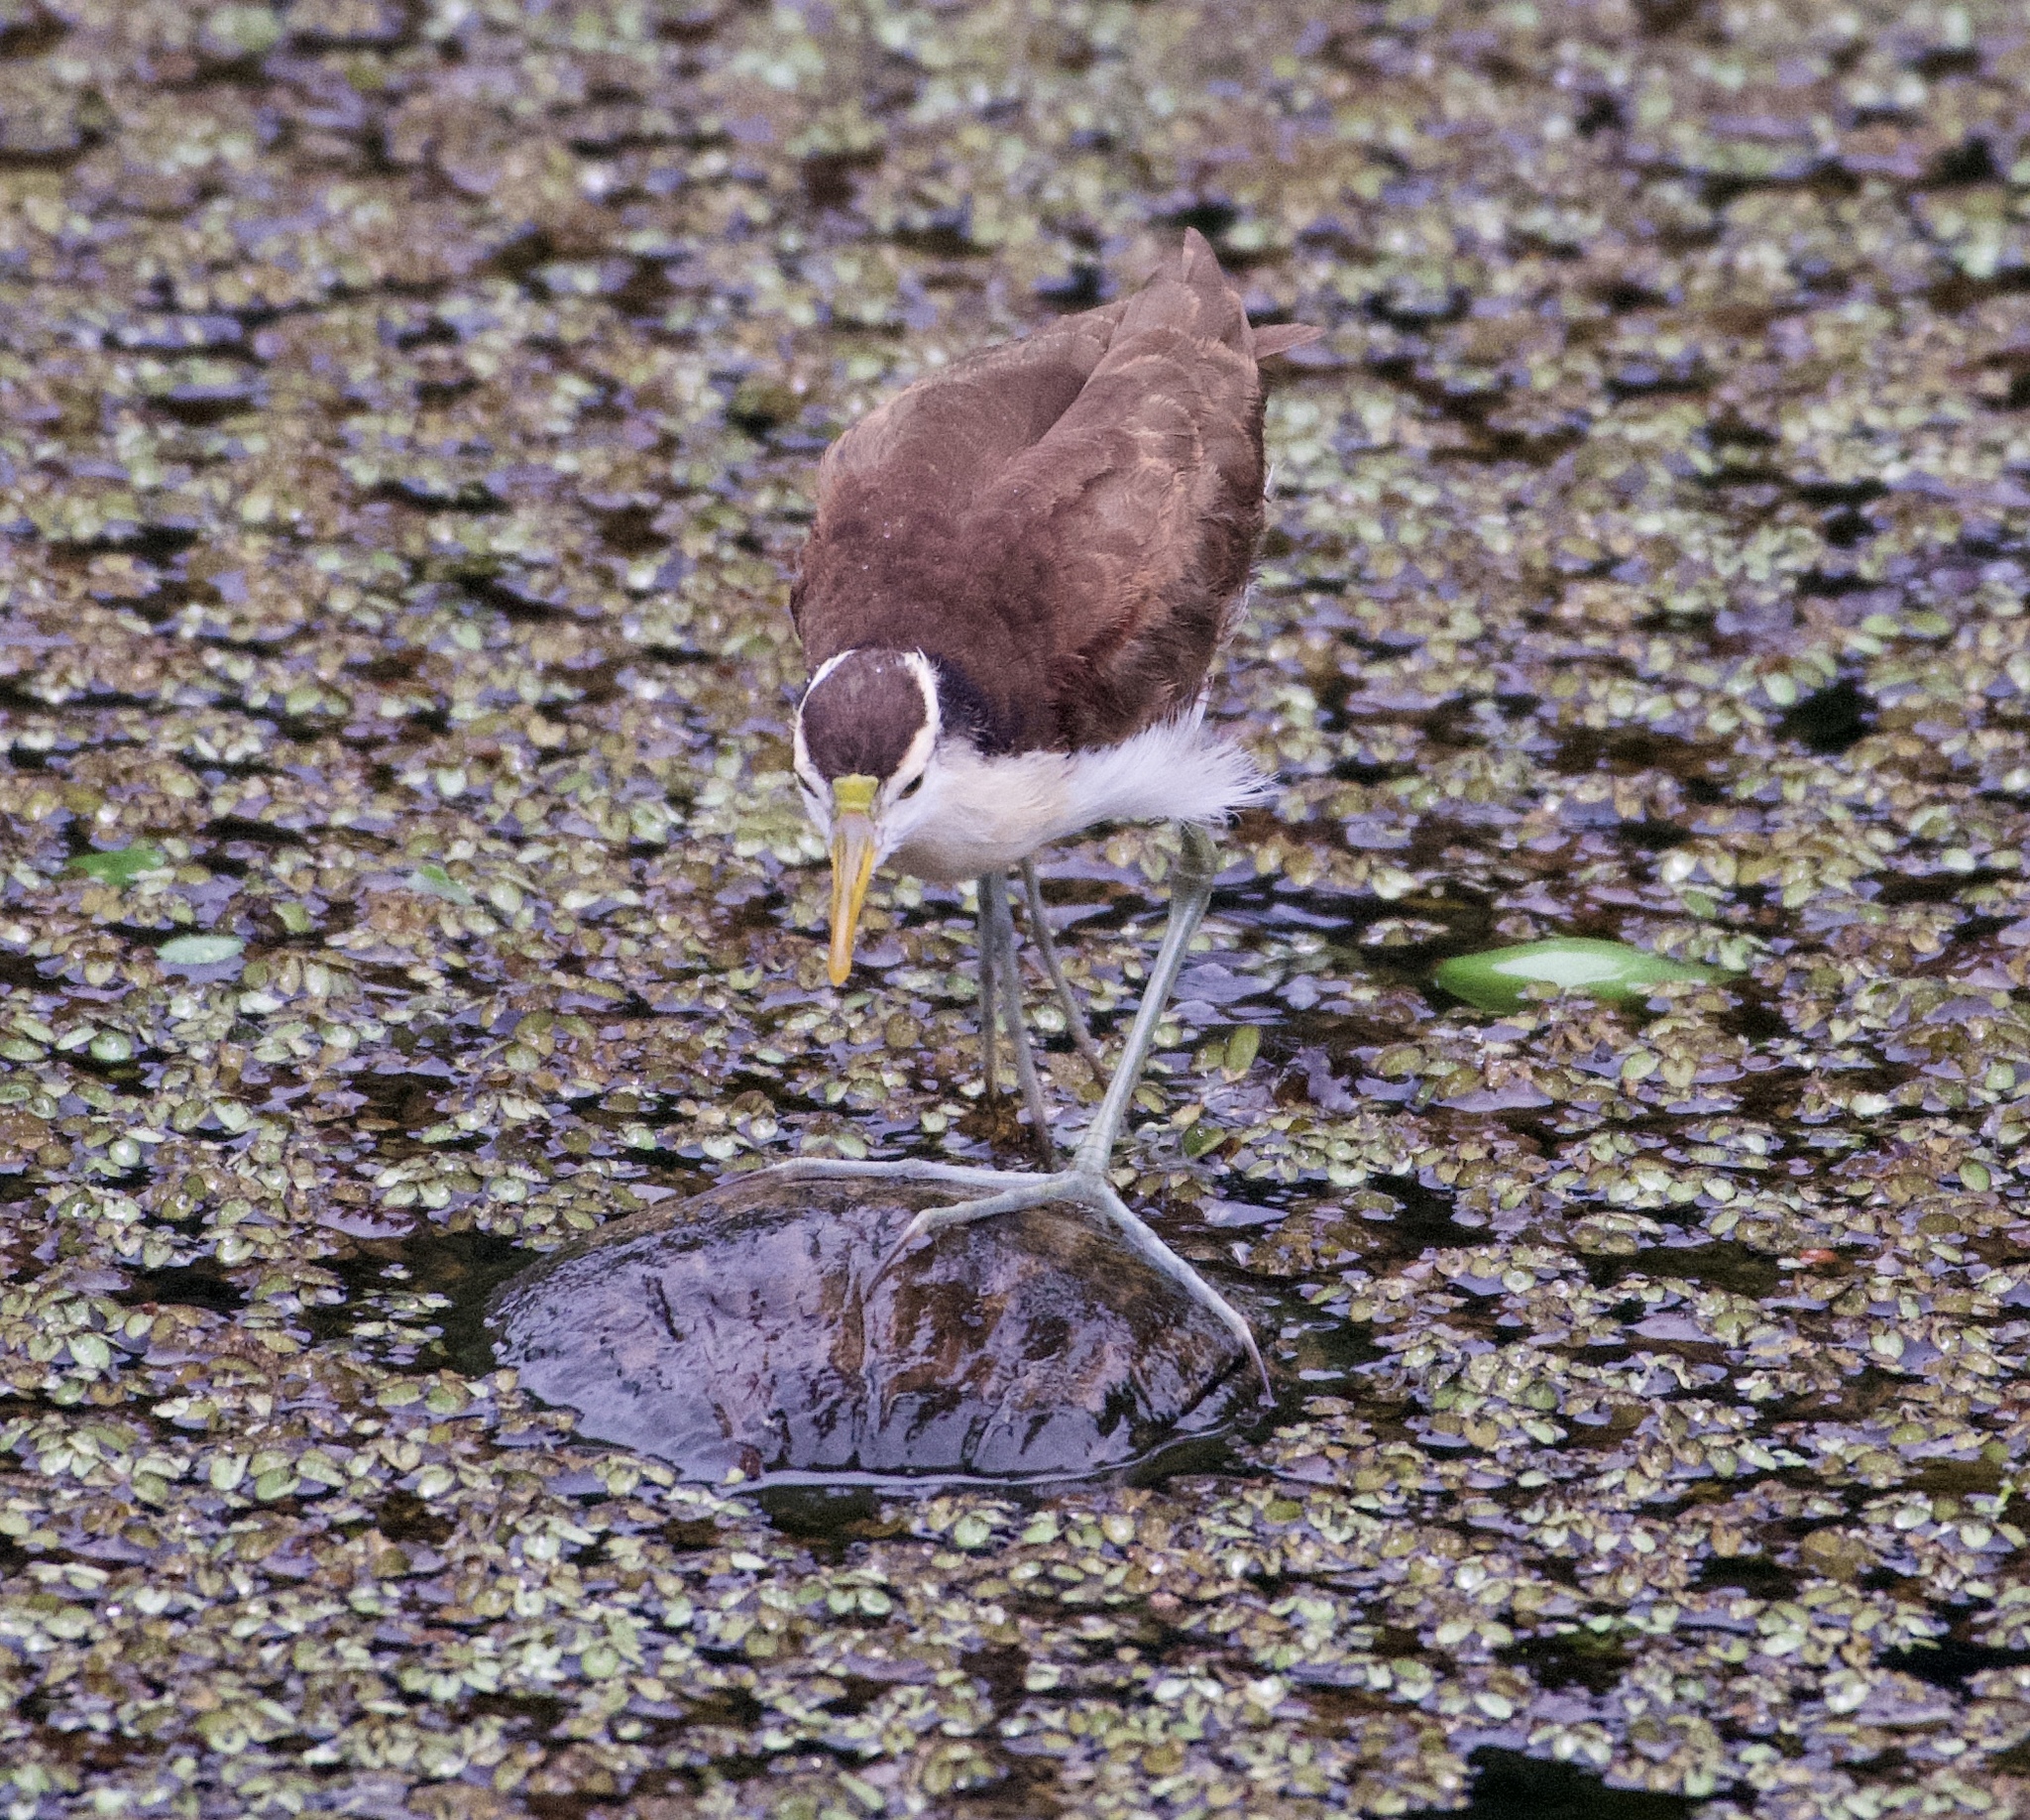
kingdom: Animalia
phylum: Chordata
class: Aves
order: Charadriiformes
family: Jacanidae
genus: Jacana
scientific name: Jacana spinosa
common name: Northern jacana
